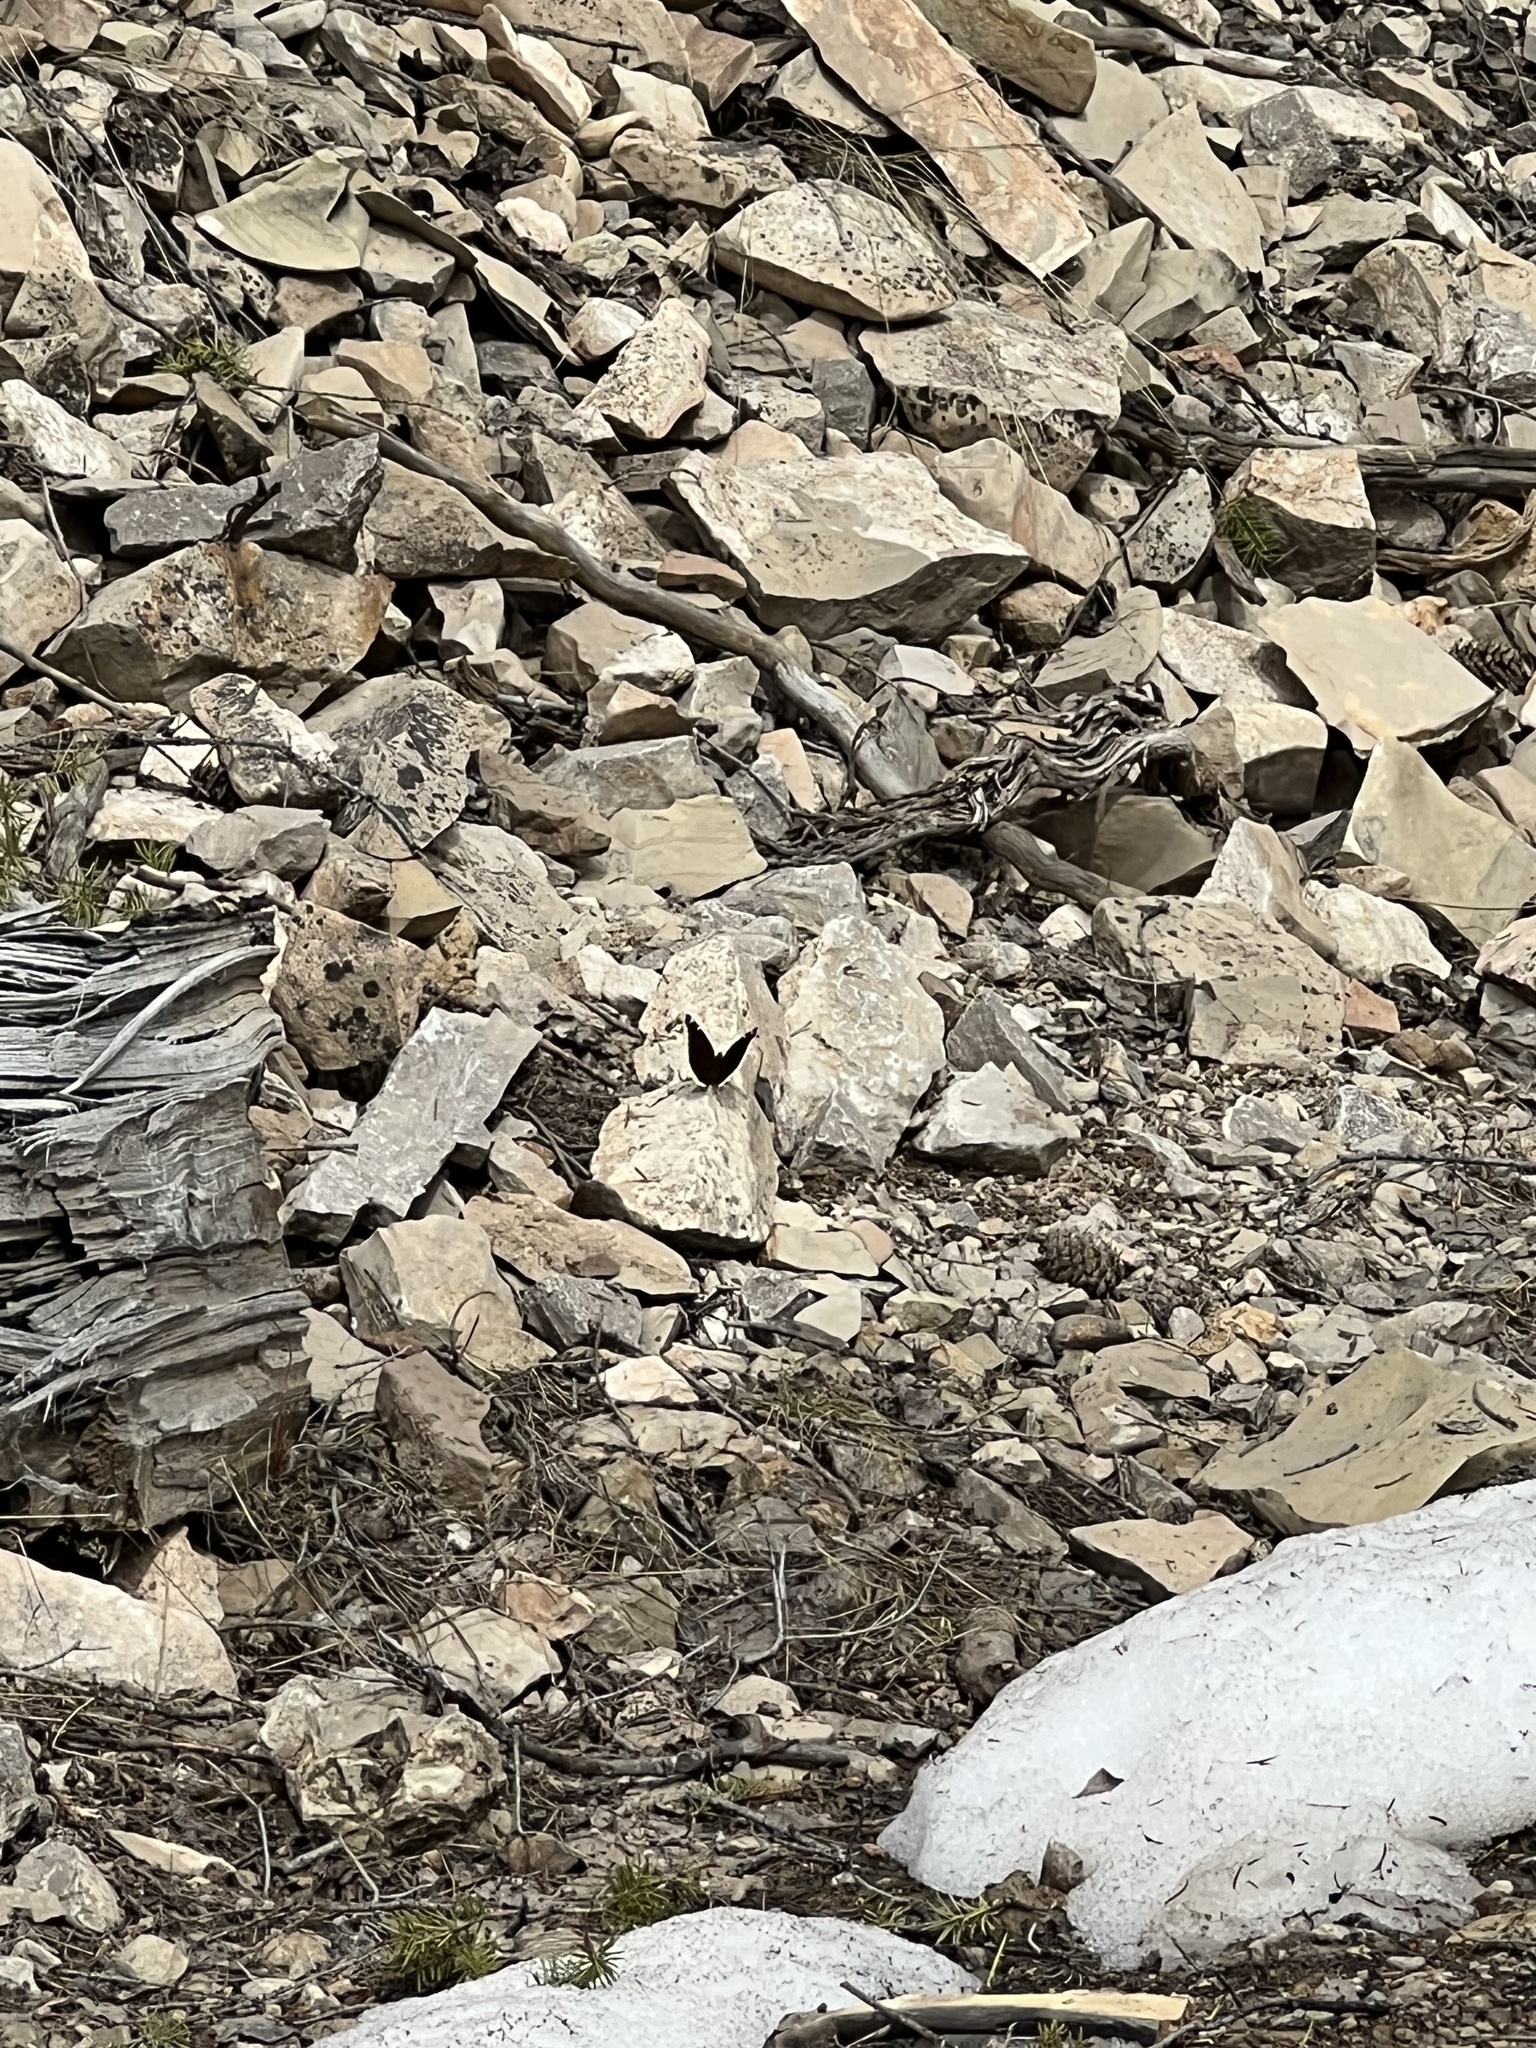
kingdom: Animalia
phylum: Arthropoda
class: Insecta
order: Lepidoptera
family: Nymphalidae
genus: Nymphalis
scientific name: Nymphalis antiopa
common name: Camberwell beauty
